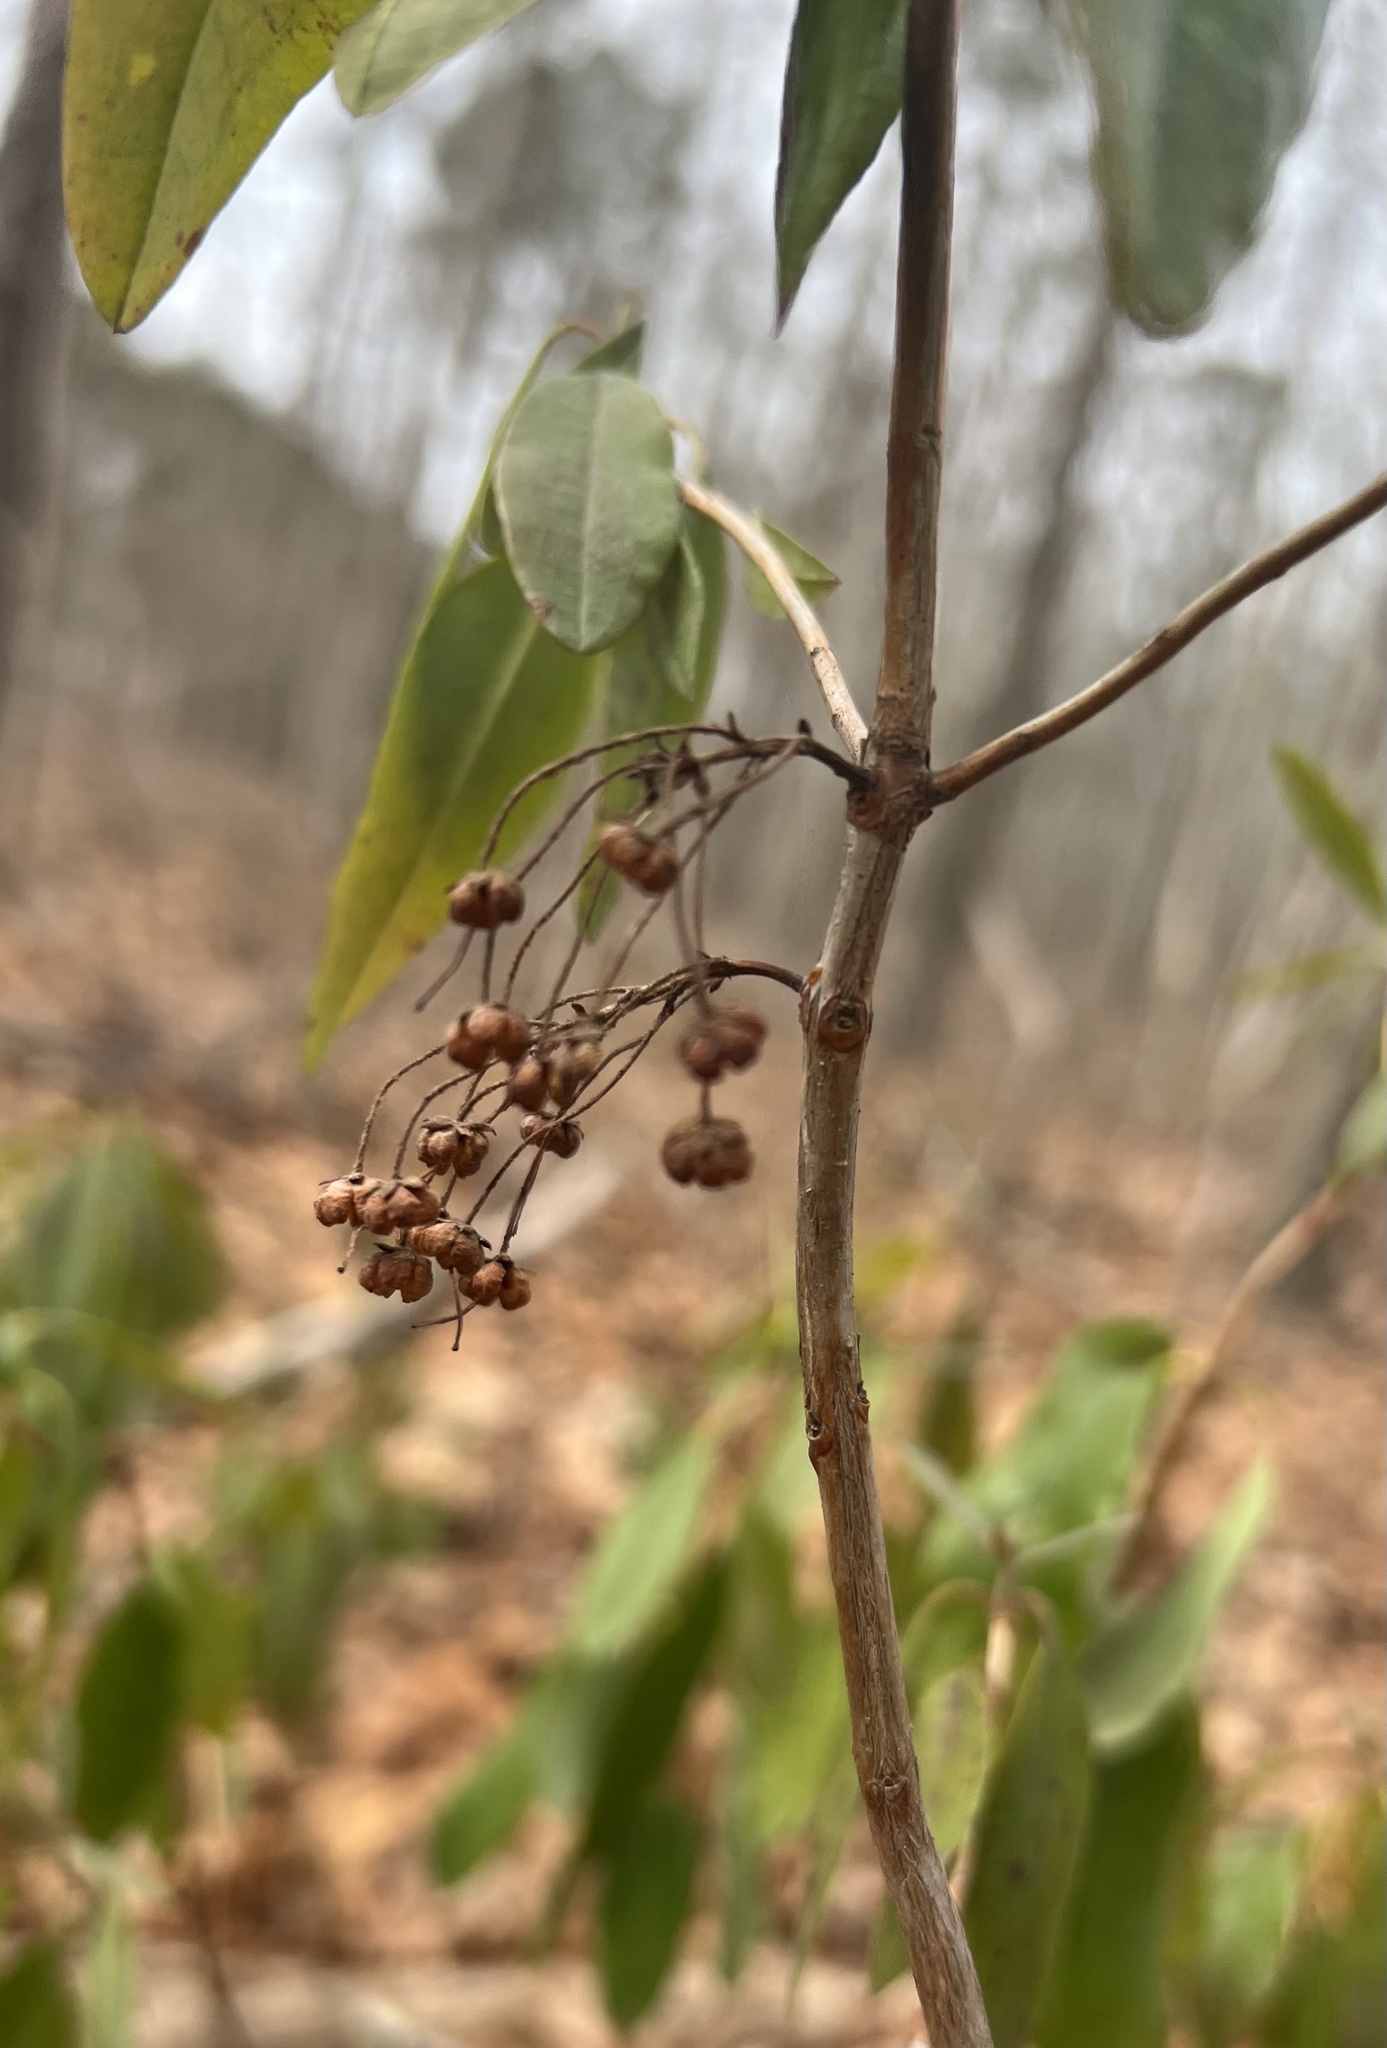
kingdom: Plantae
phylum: Tracheophyta
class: Magnoliopsida
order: Ericales
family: Ericaceae
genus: Kalmia
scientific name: Kalmia angustifolia
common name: Sheep-laurel
